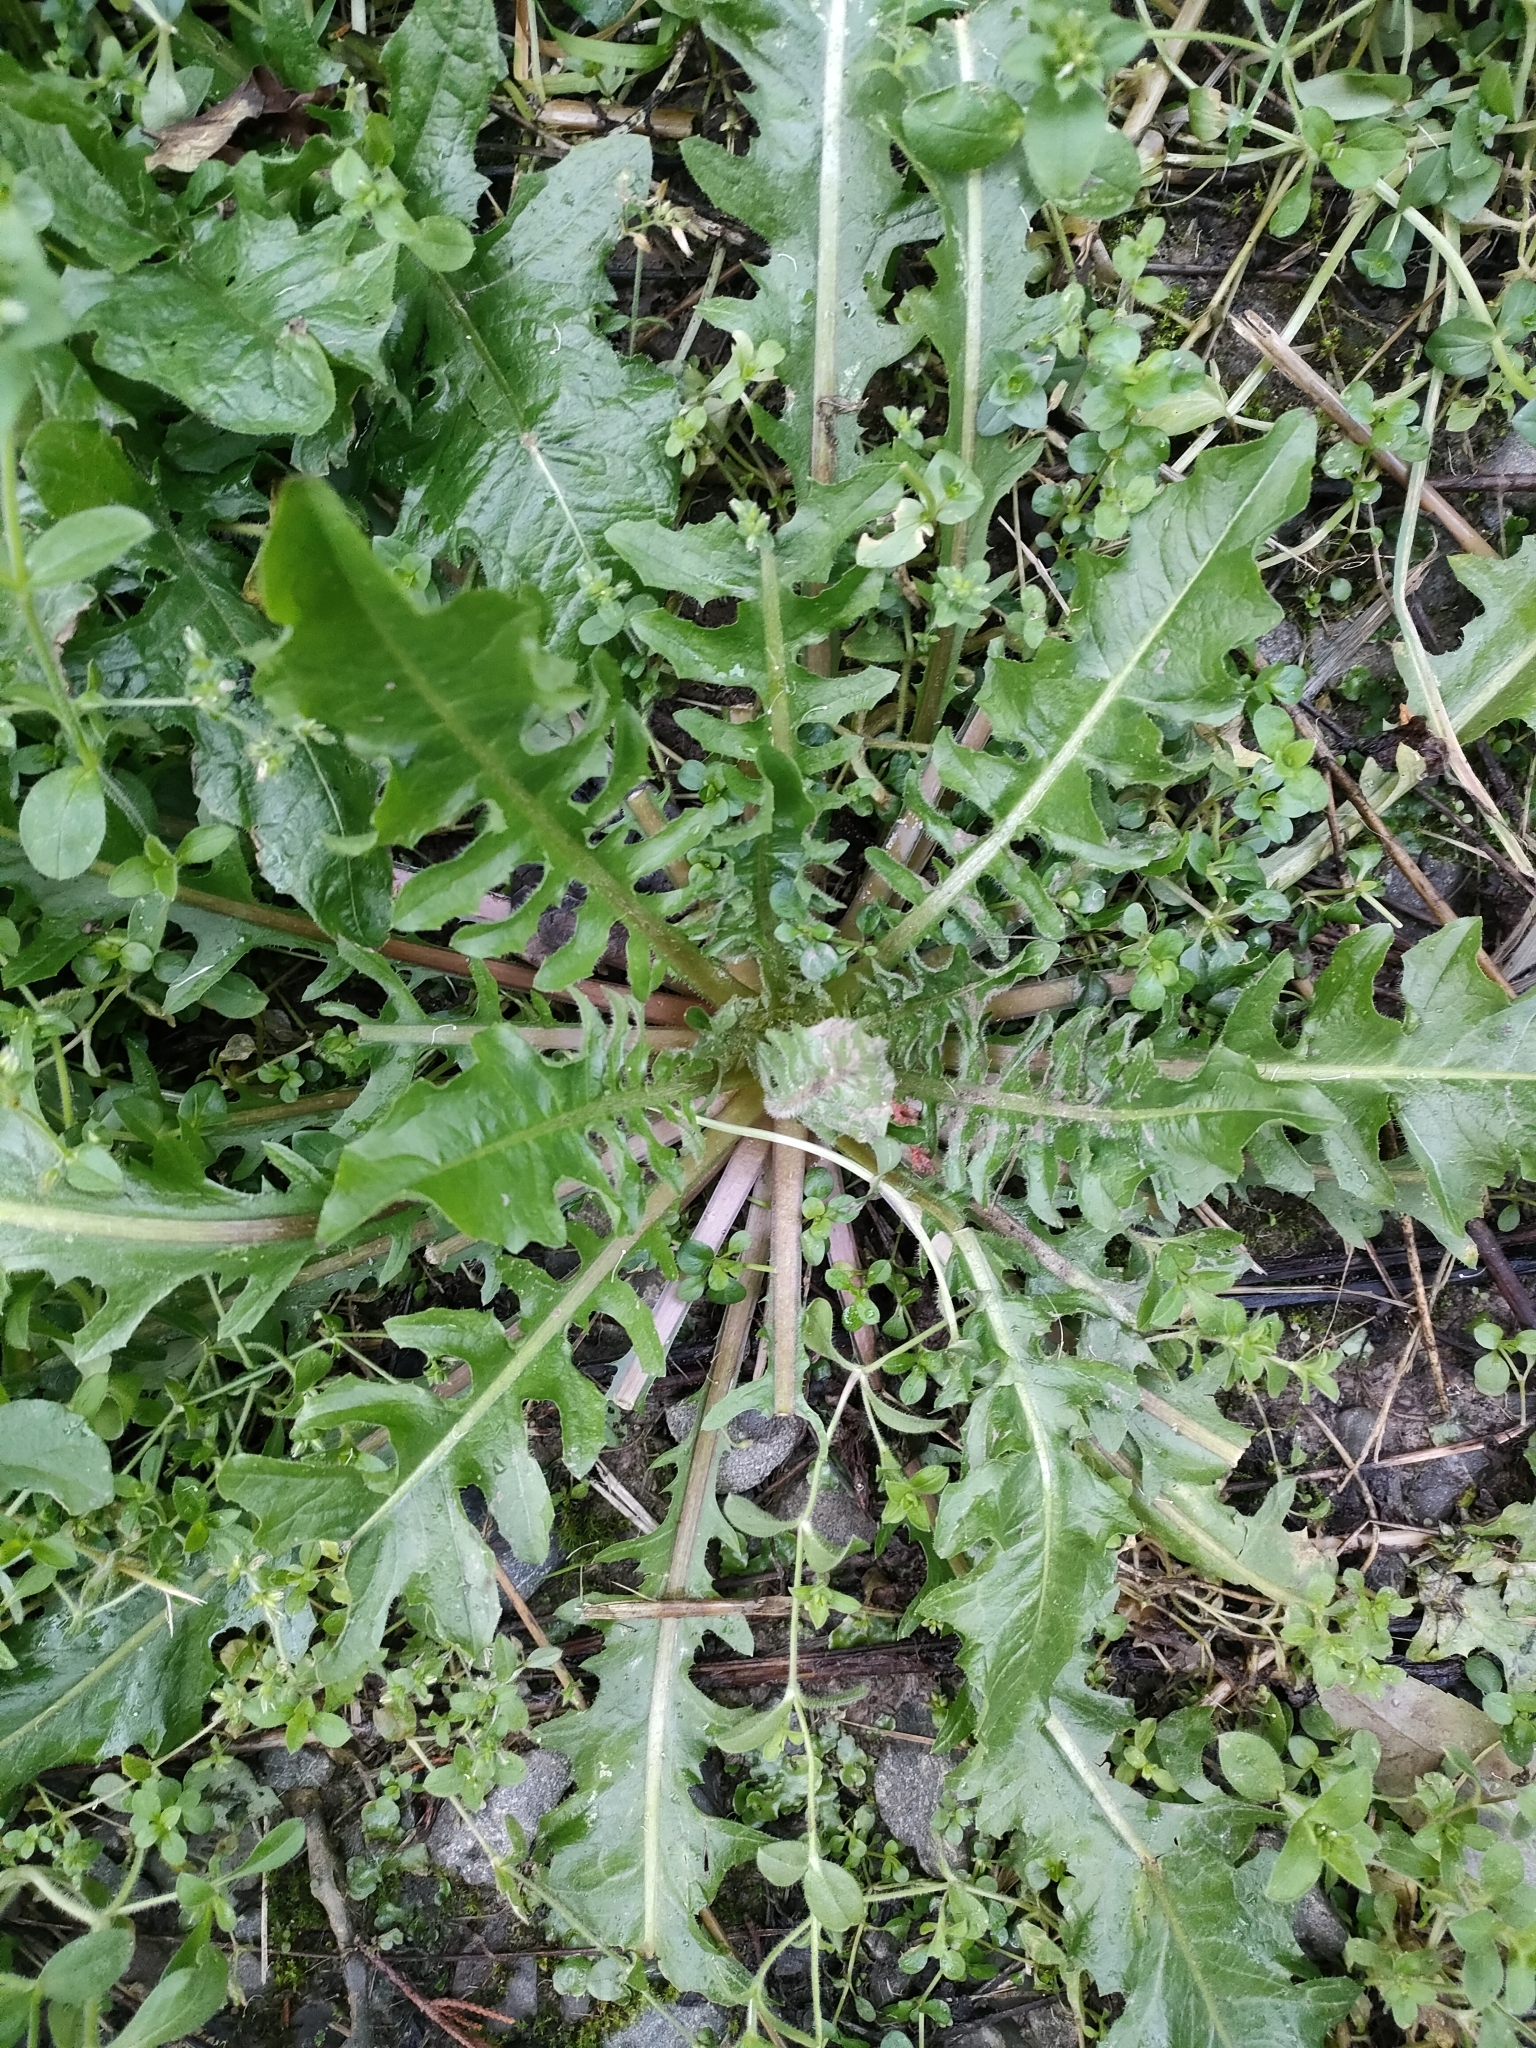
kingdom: Plantae
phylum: Tracheophyta
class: Magnoliopsida
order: Asterales
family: Asteraceae
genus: Crepis
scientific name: Crepis vesicaria
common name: Beaked hawksbeard
